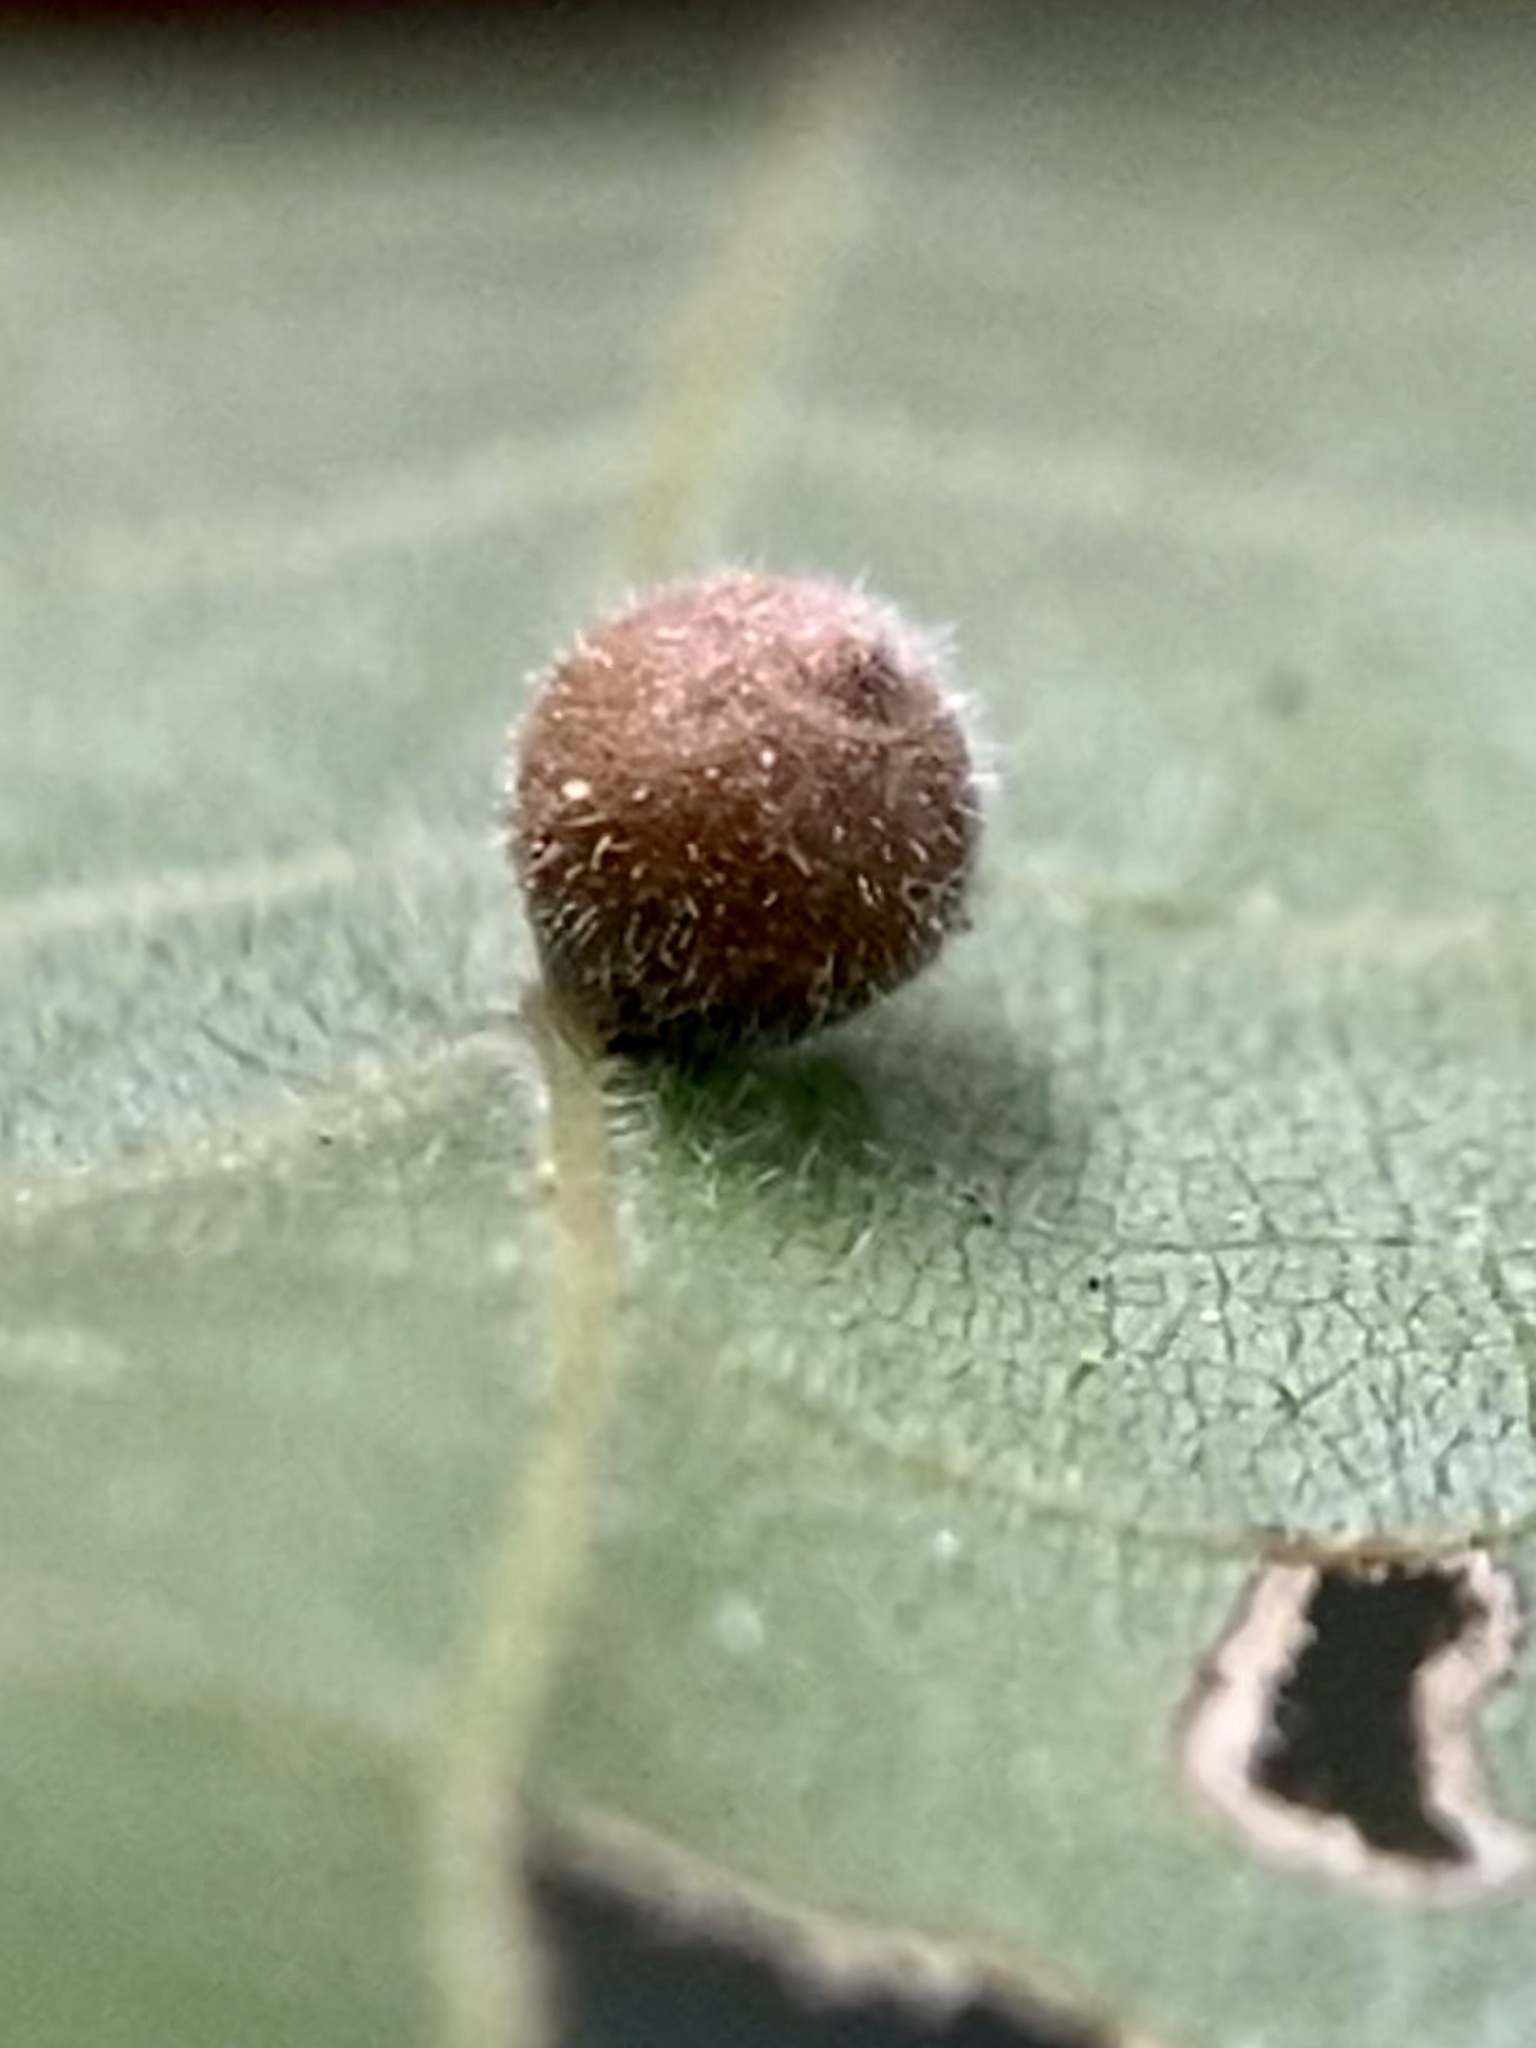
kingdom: Animalia
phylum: Arthropoda
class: Insecta
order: Diptera
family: Cecidomyiidae
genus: Caryomyia
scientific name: Caryomyia cilidolium
